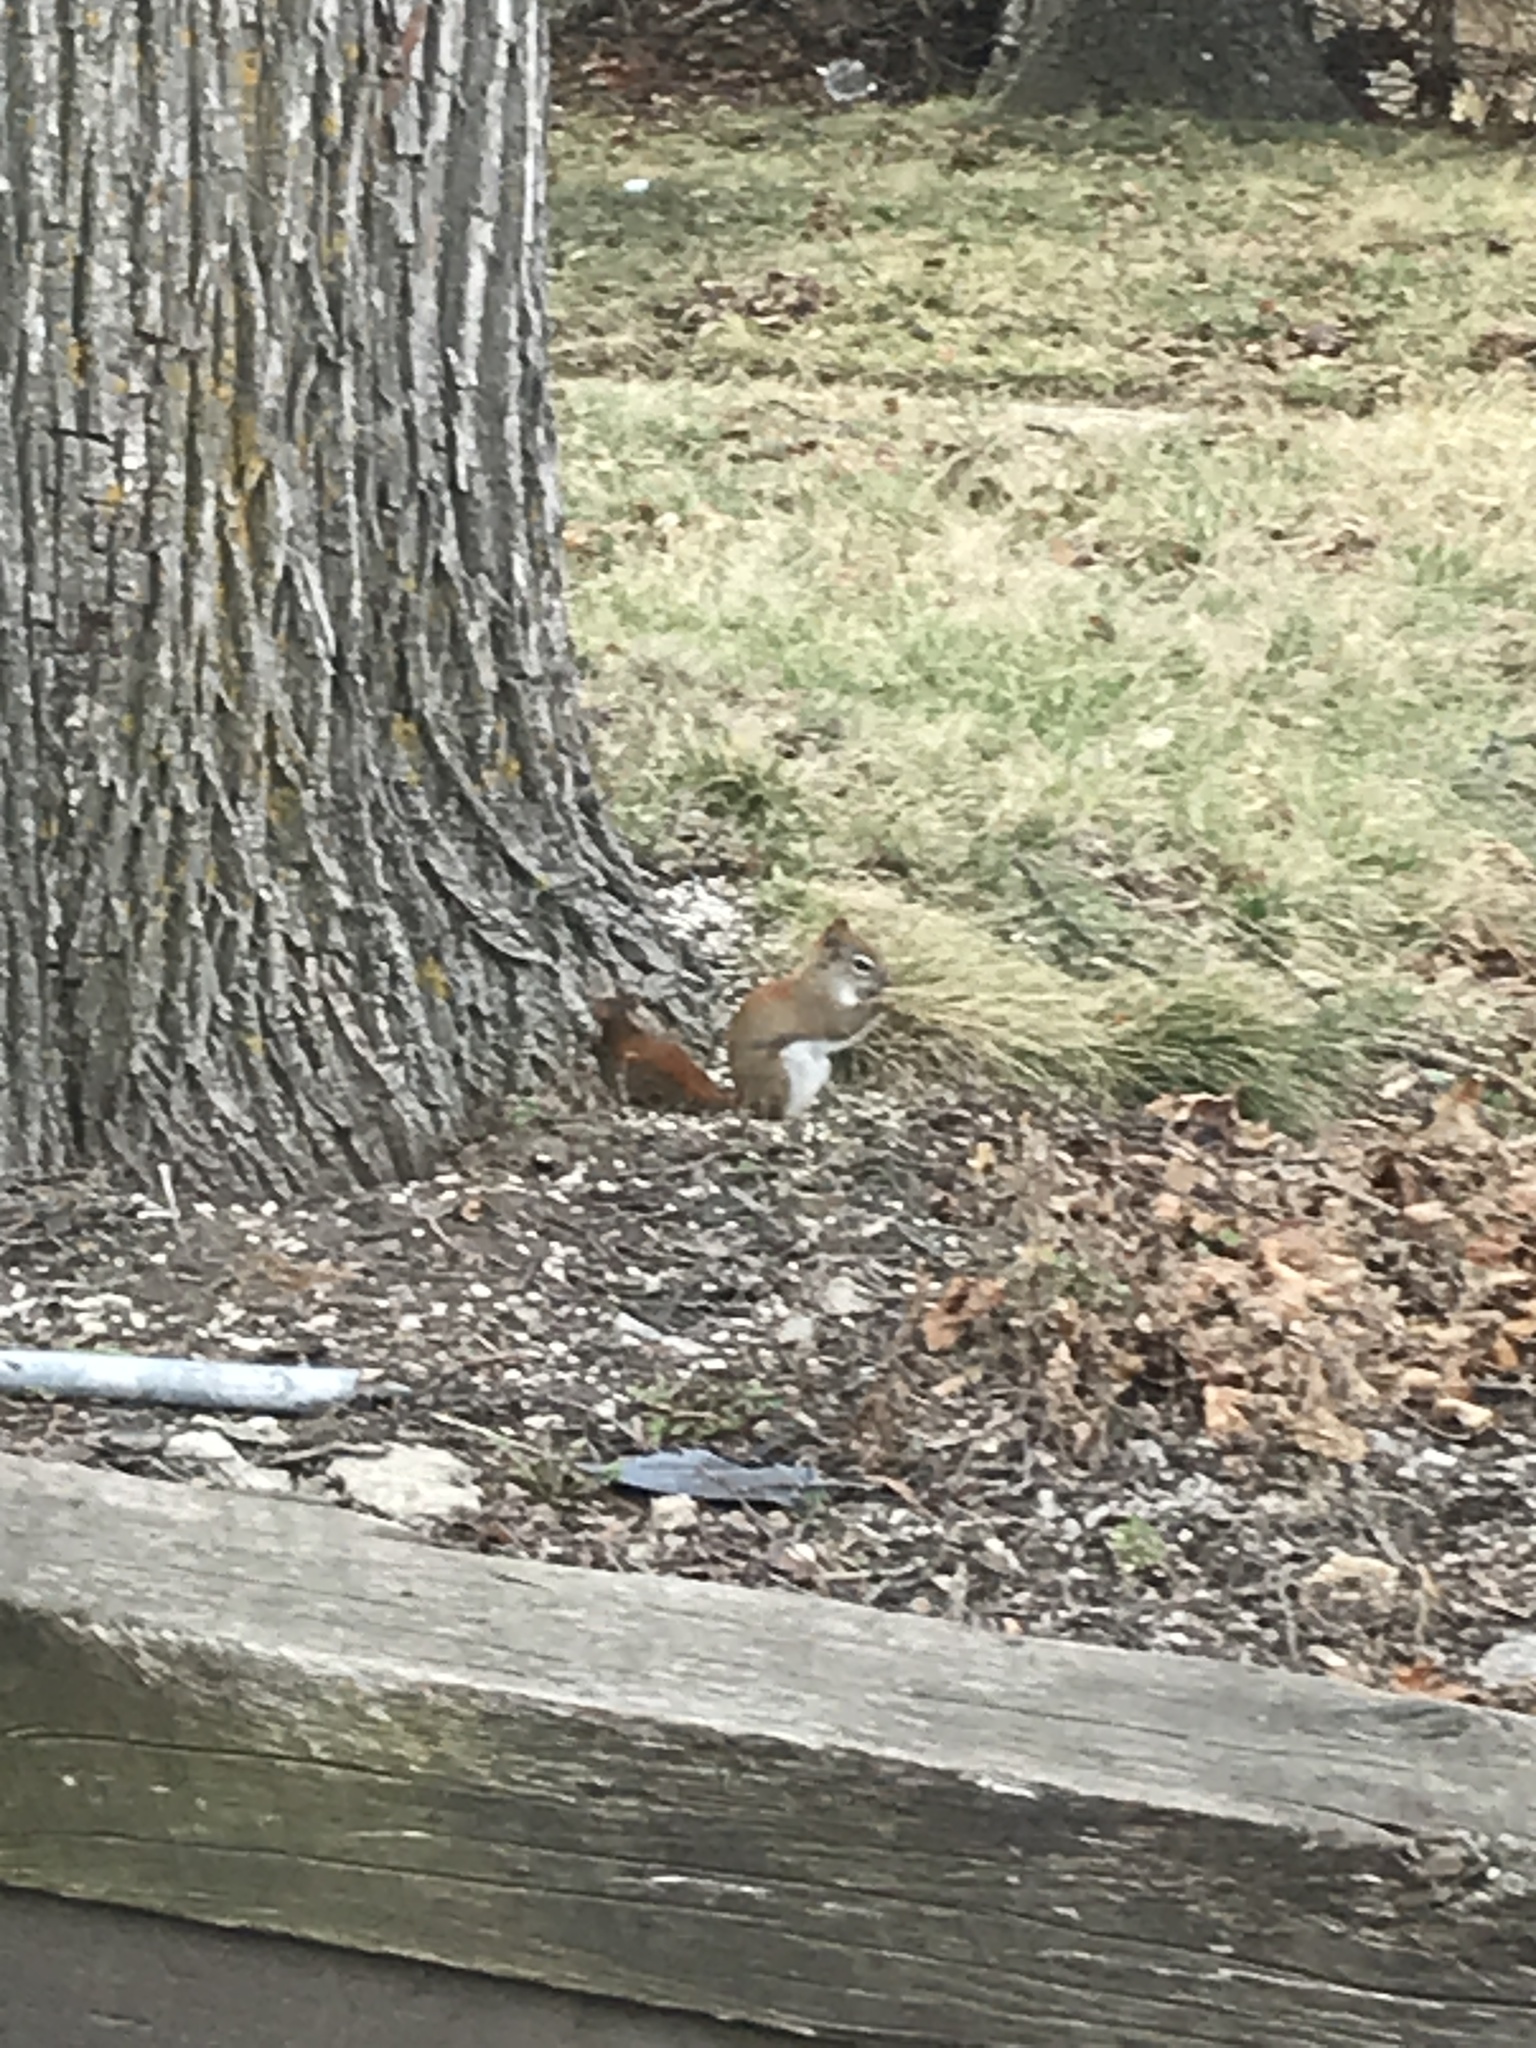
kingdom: Animalia
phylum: Chordata
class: Mammalia
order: Rodentia
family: Sciuridae
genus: Tamiasciurus
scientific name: Tamiasciurus hudsonicus
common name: Red squirrel
